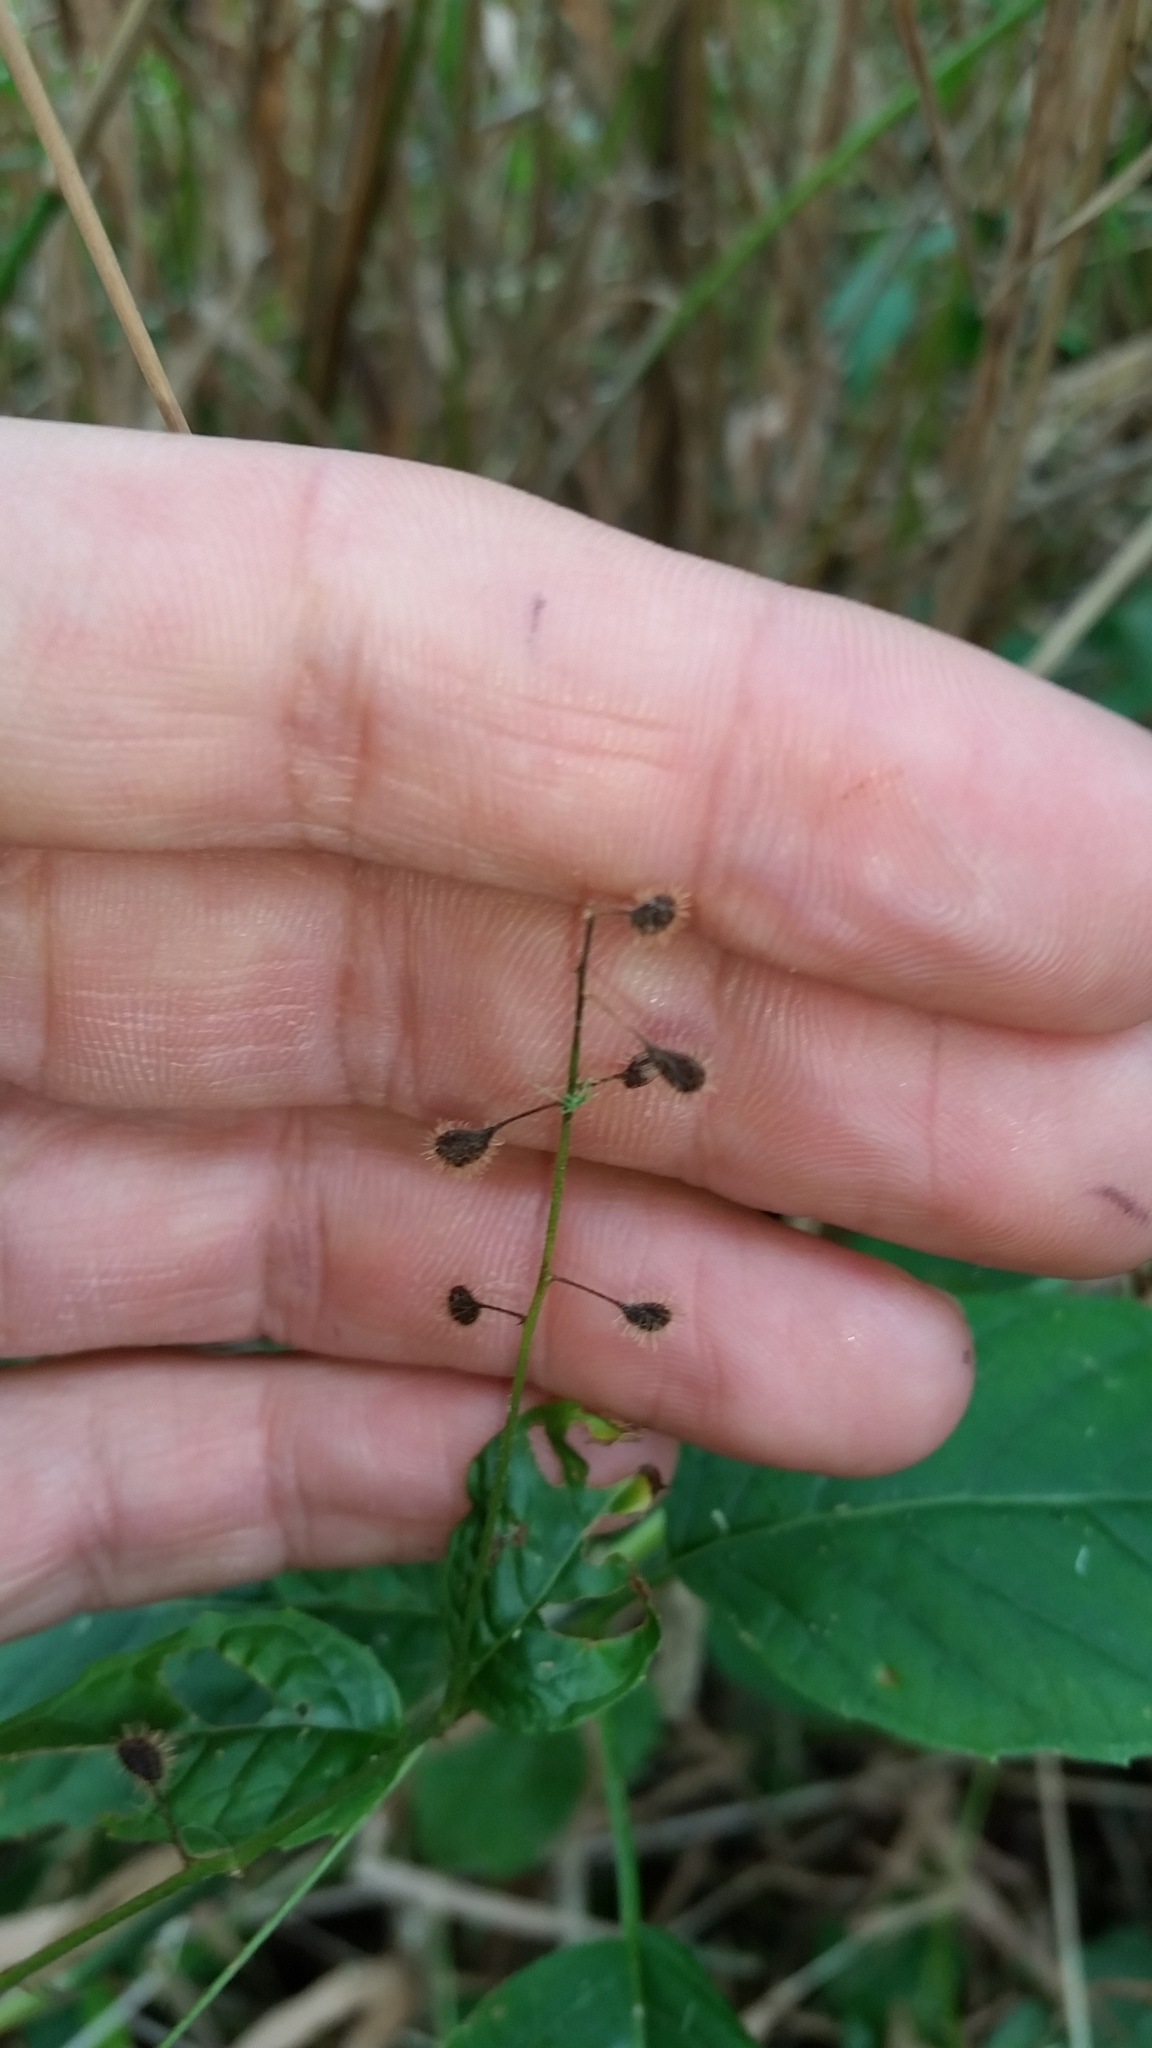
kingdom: Plantae
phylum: Tracheophyta
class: Magnoliopsida
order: Myrtales
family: Onagraceae
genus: Circaea
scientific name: Circaea canadensis
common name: Broad-leaved enchanter's nightshade
